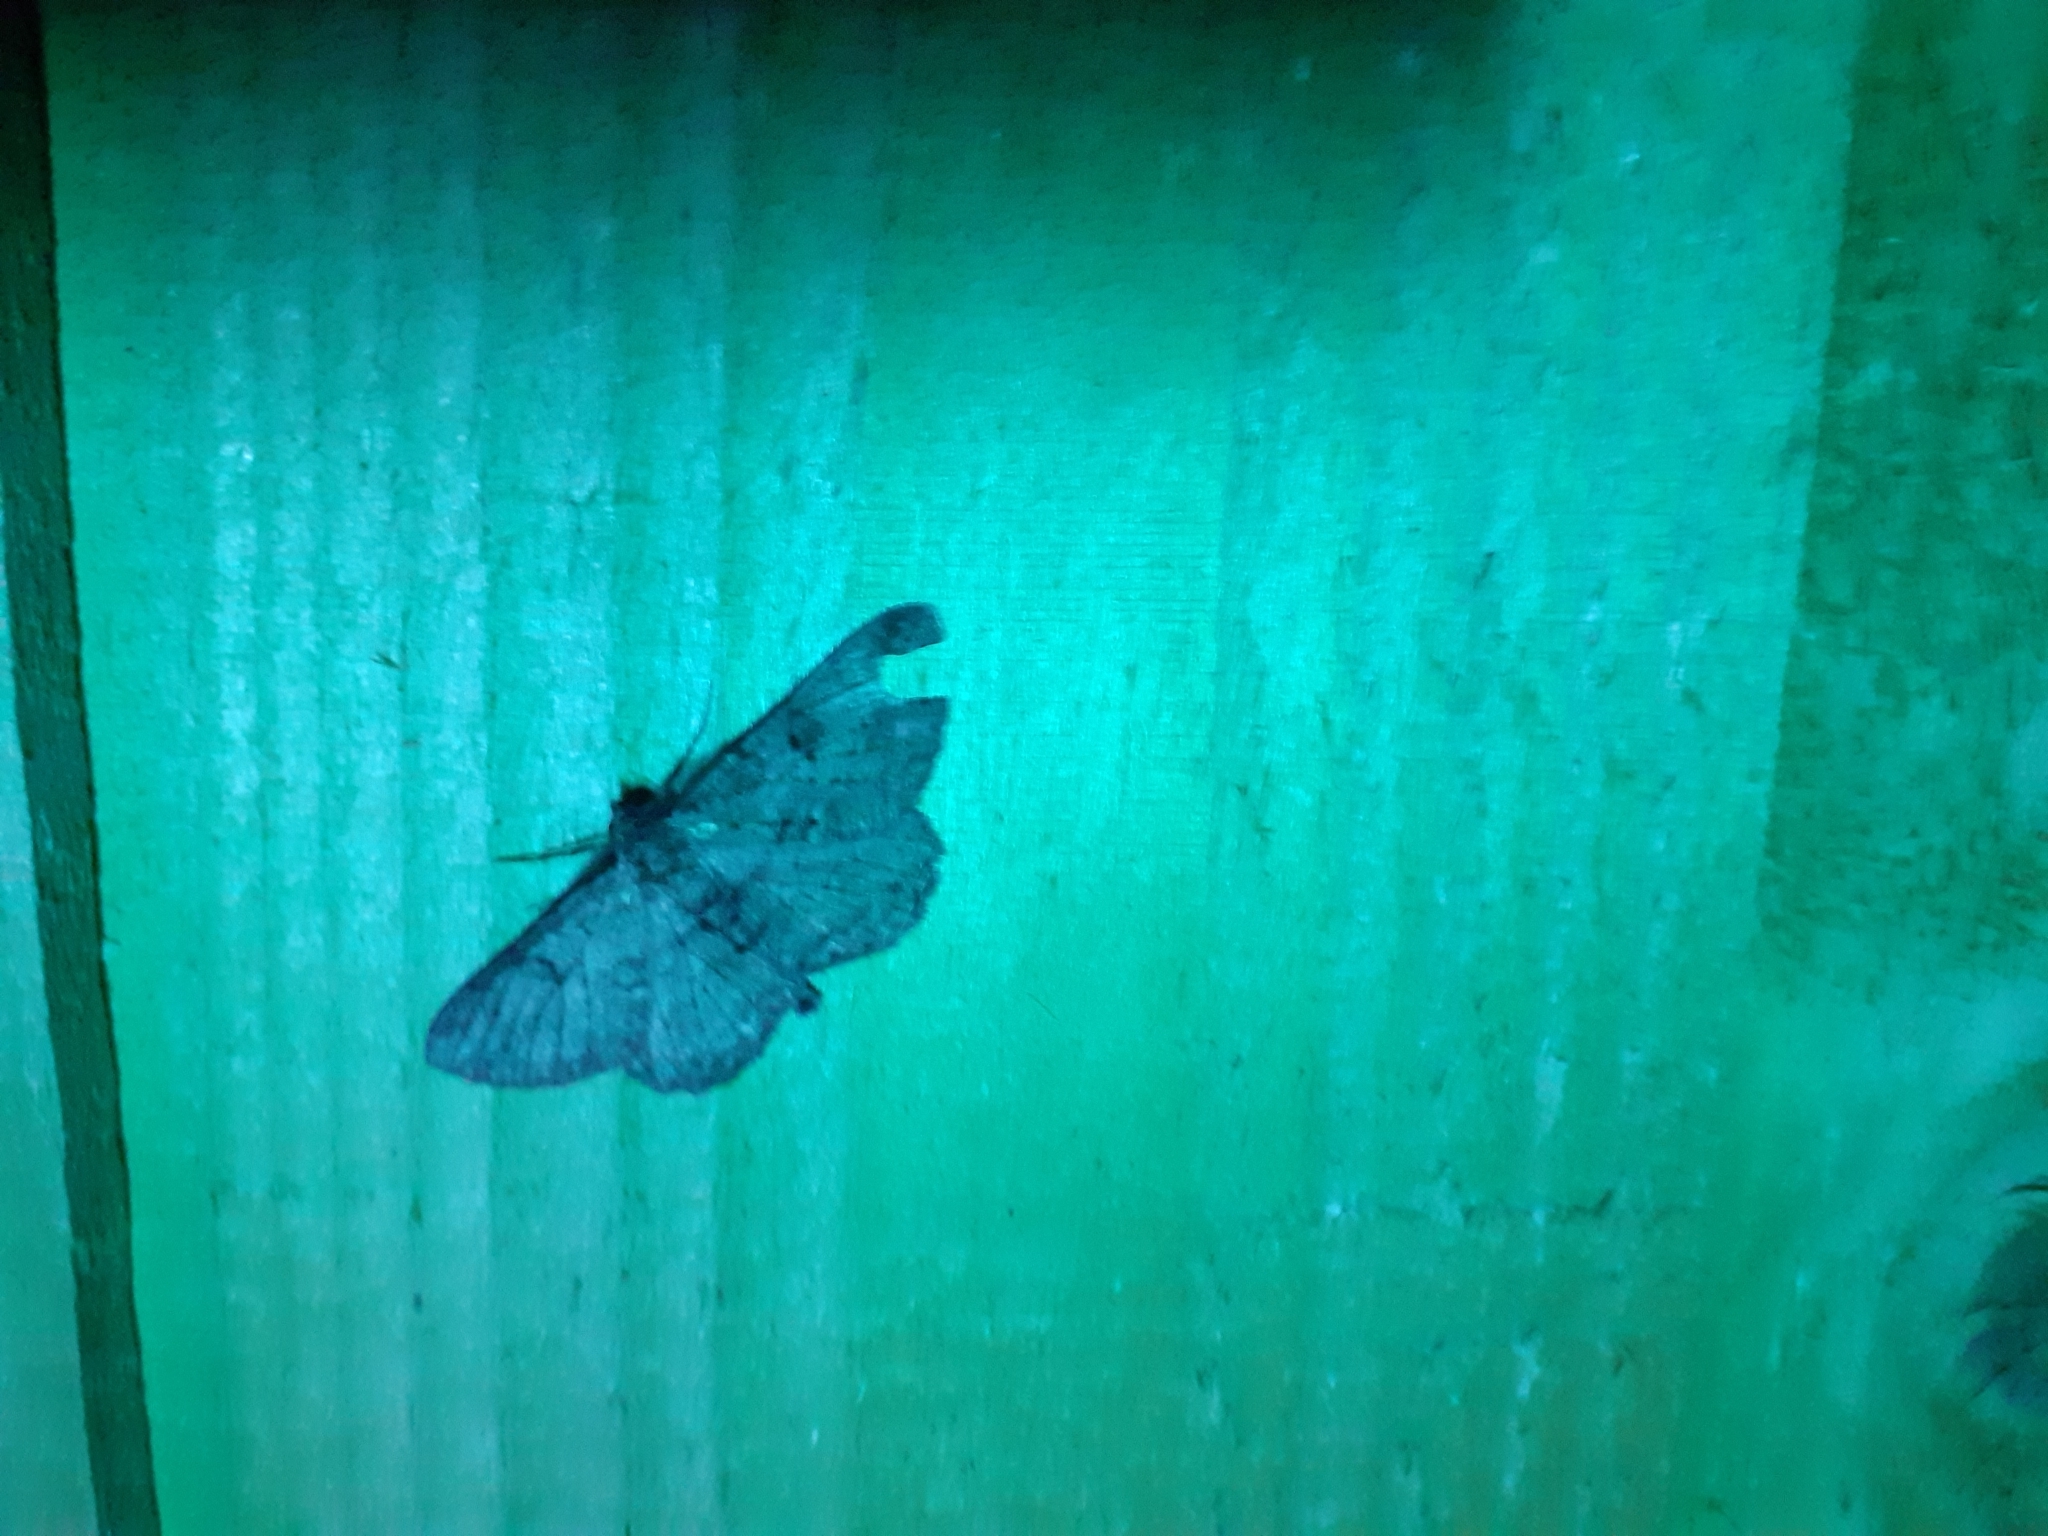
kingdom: Animalia
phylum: Arthropoda
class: Insecta
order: Lepidoptera
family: Geometridae
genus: Peribatodes
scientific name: Peribatodes rhomboidaria
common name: Willow beauty
